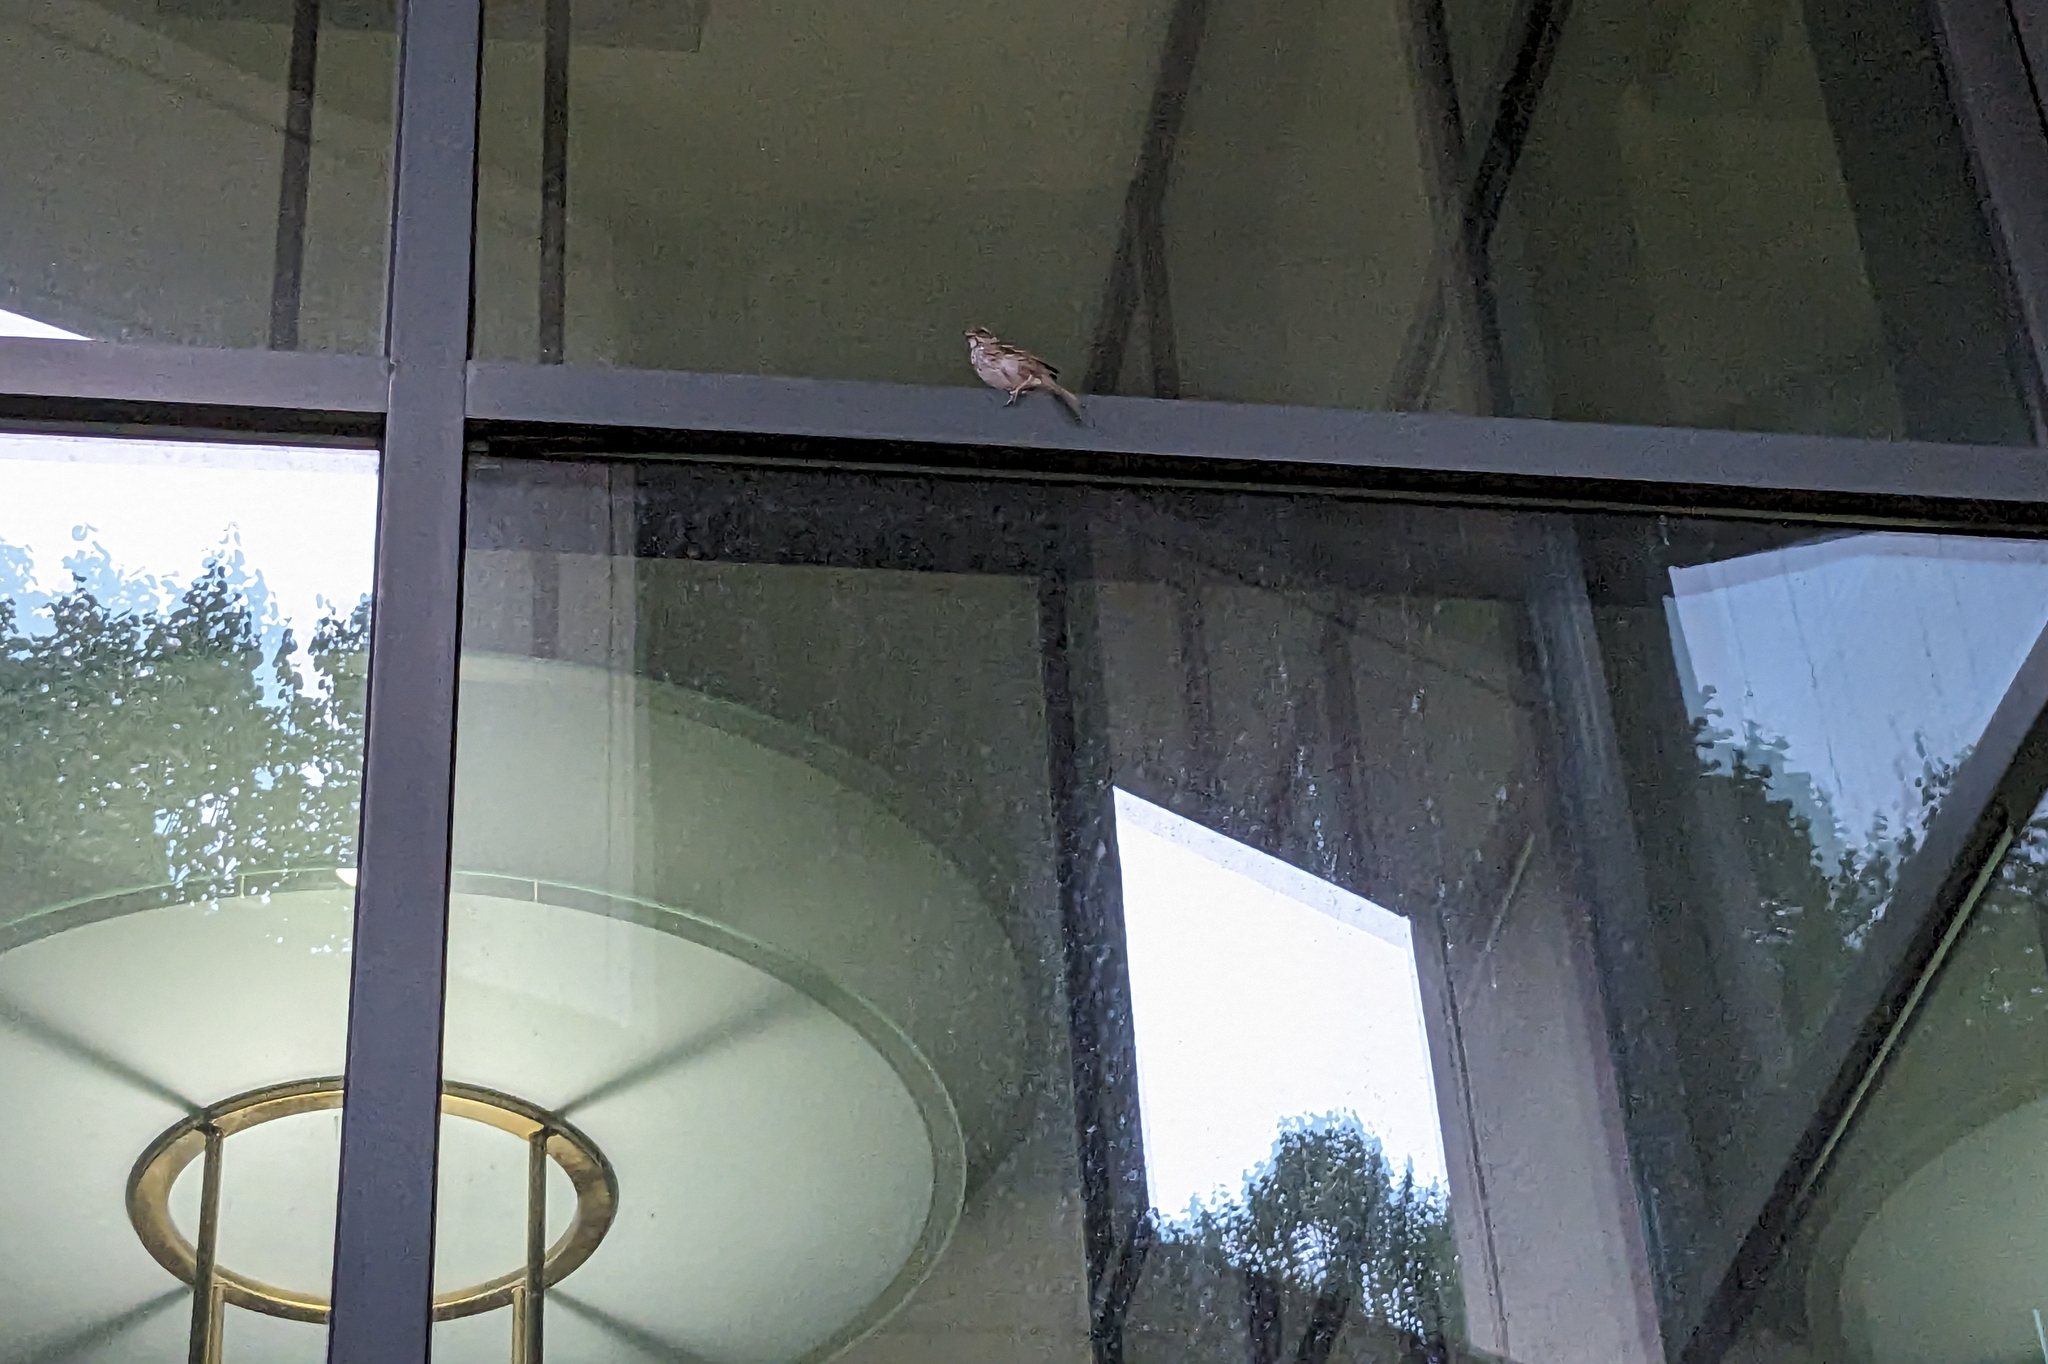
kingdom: Animalia
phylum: Chordata
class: Aves
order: Passeriformes
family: Passerellidae
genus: Zonotrichia
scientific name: Zonotrichia albicollis
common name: White-throated sparrow
